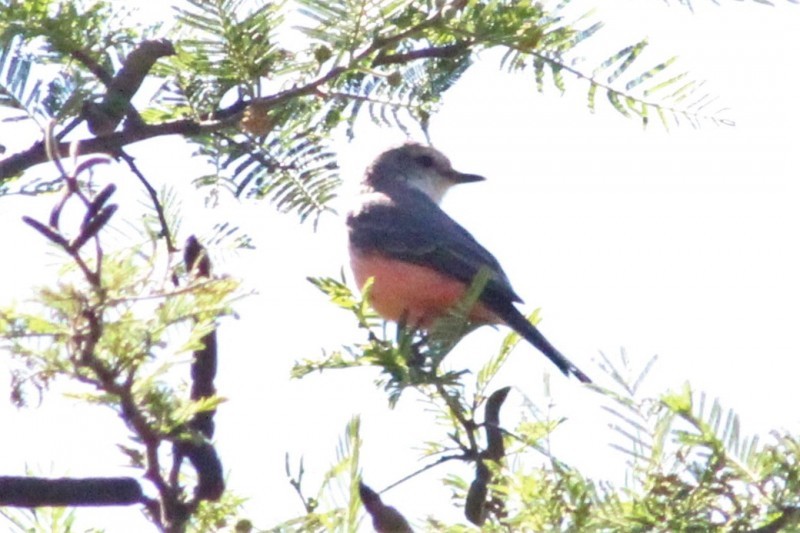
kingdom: Animalia
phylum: Chordata
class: Aves
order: Passeriformes
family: Tyrannidae
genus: Pyrocephalus
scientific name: Pyrocephalus rubinus
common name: Vermilion flycatcher
